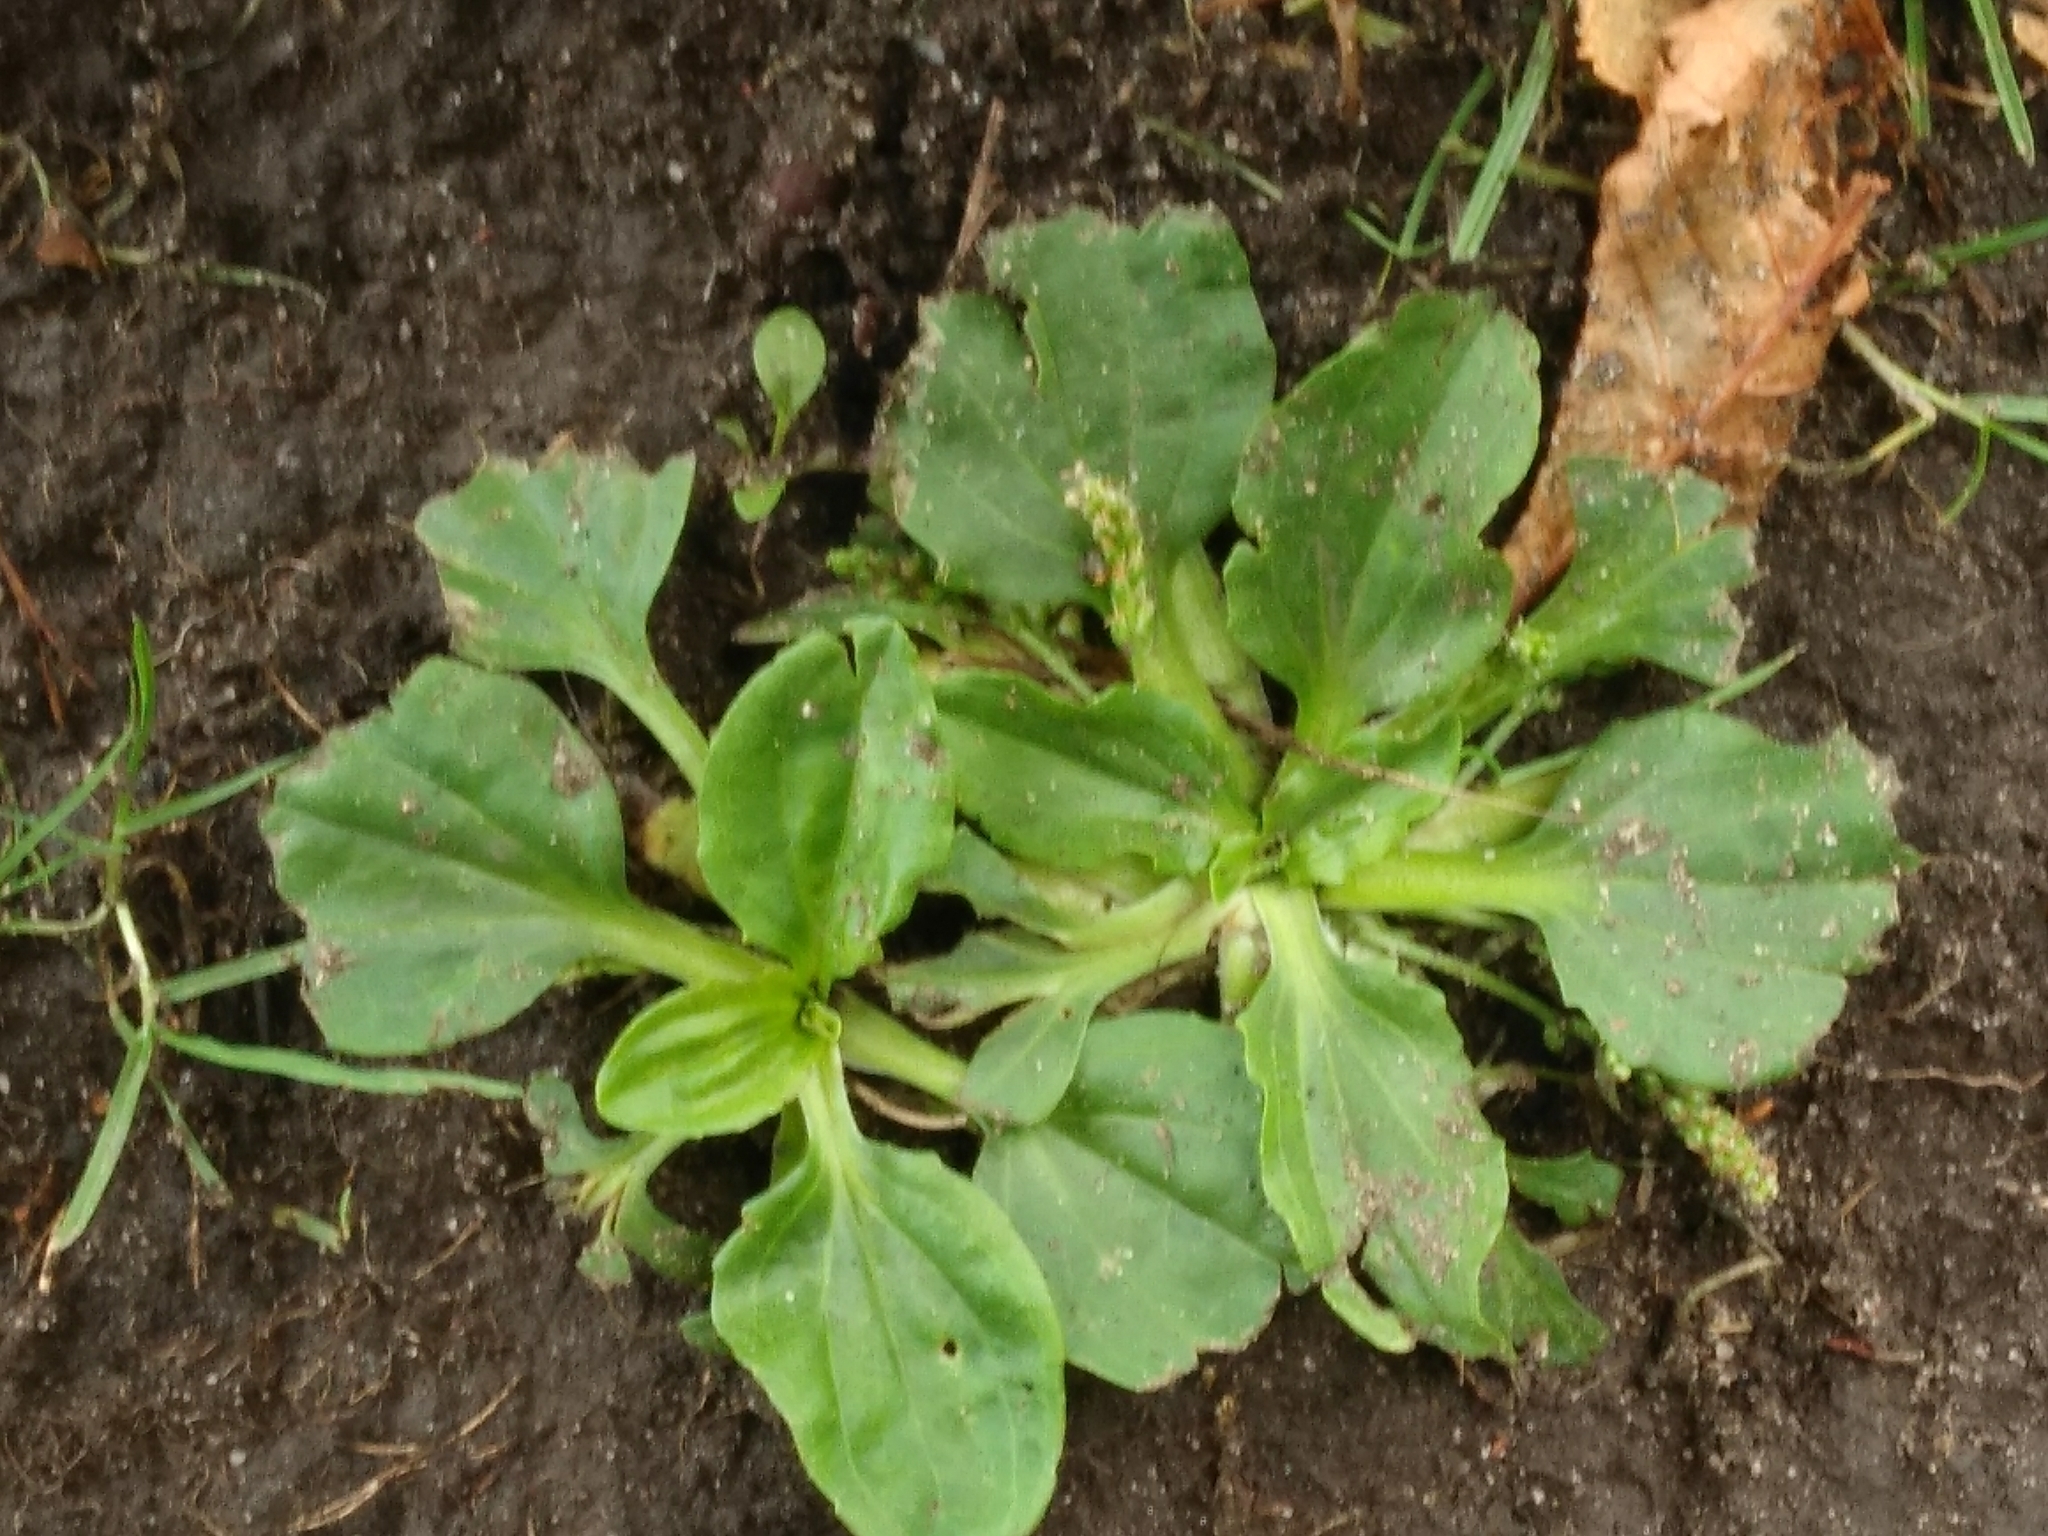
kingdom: Plantae
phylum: Tracheophyta
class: Magnoliopsida
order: Lamiales
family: Plantaginaceae
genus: Plantago
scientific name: Plantago major
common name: Common plantain
